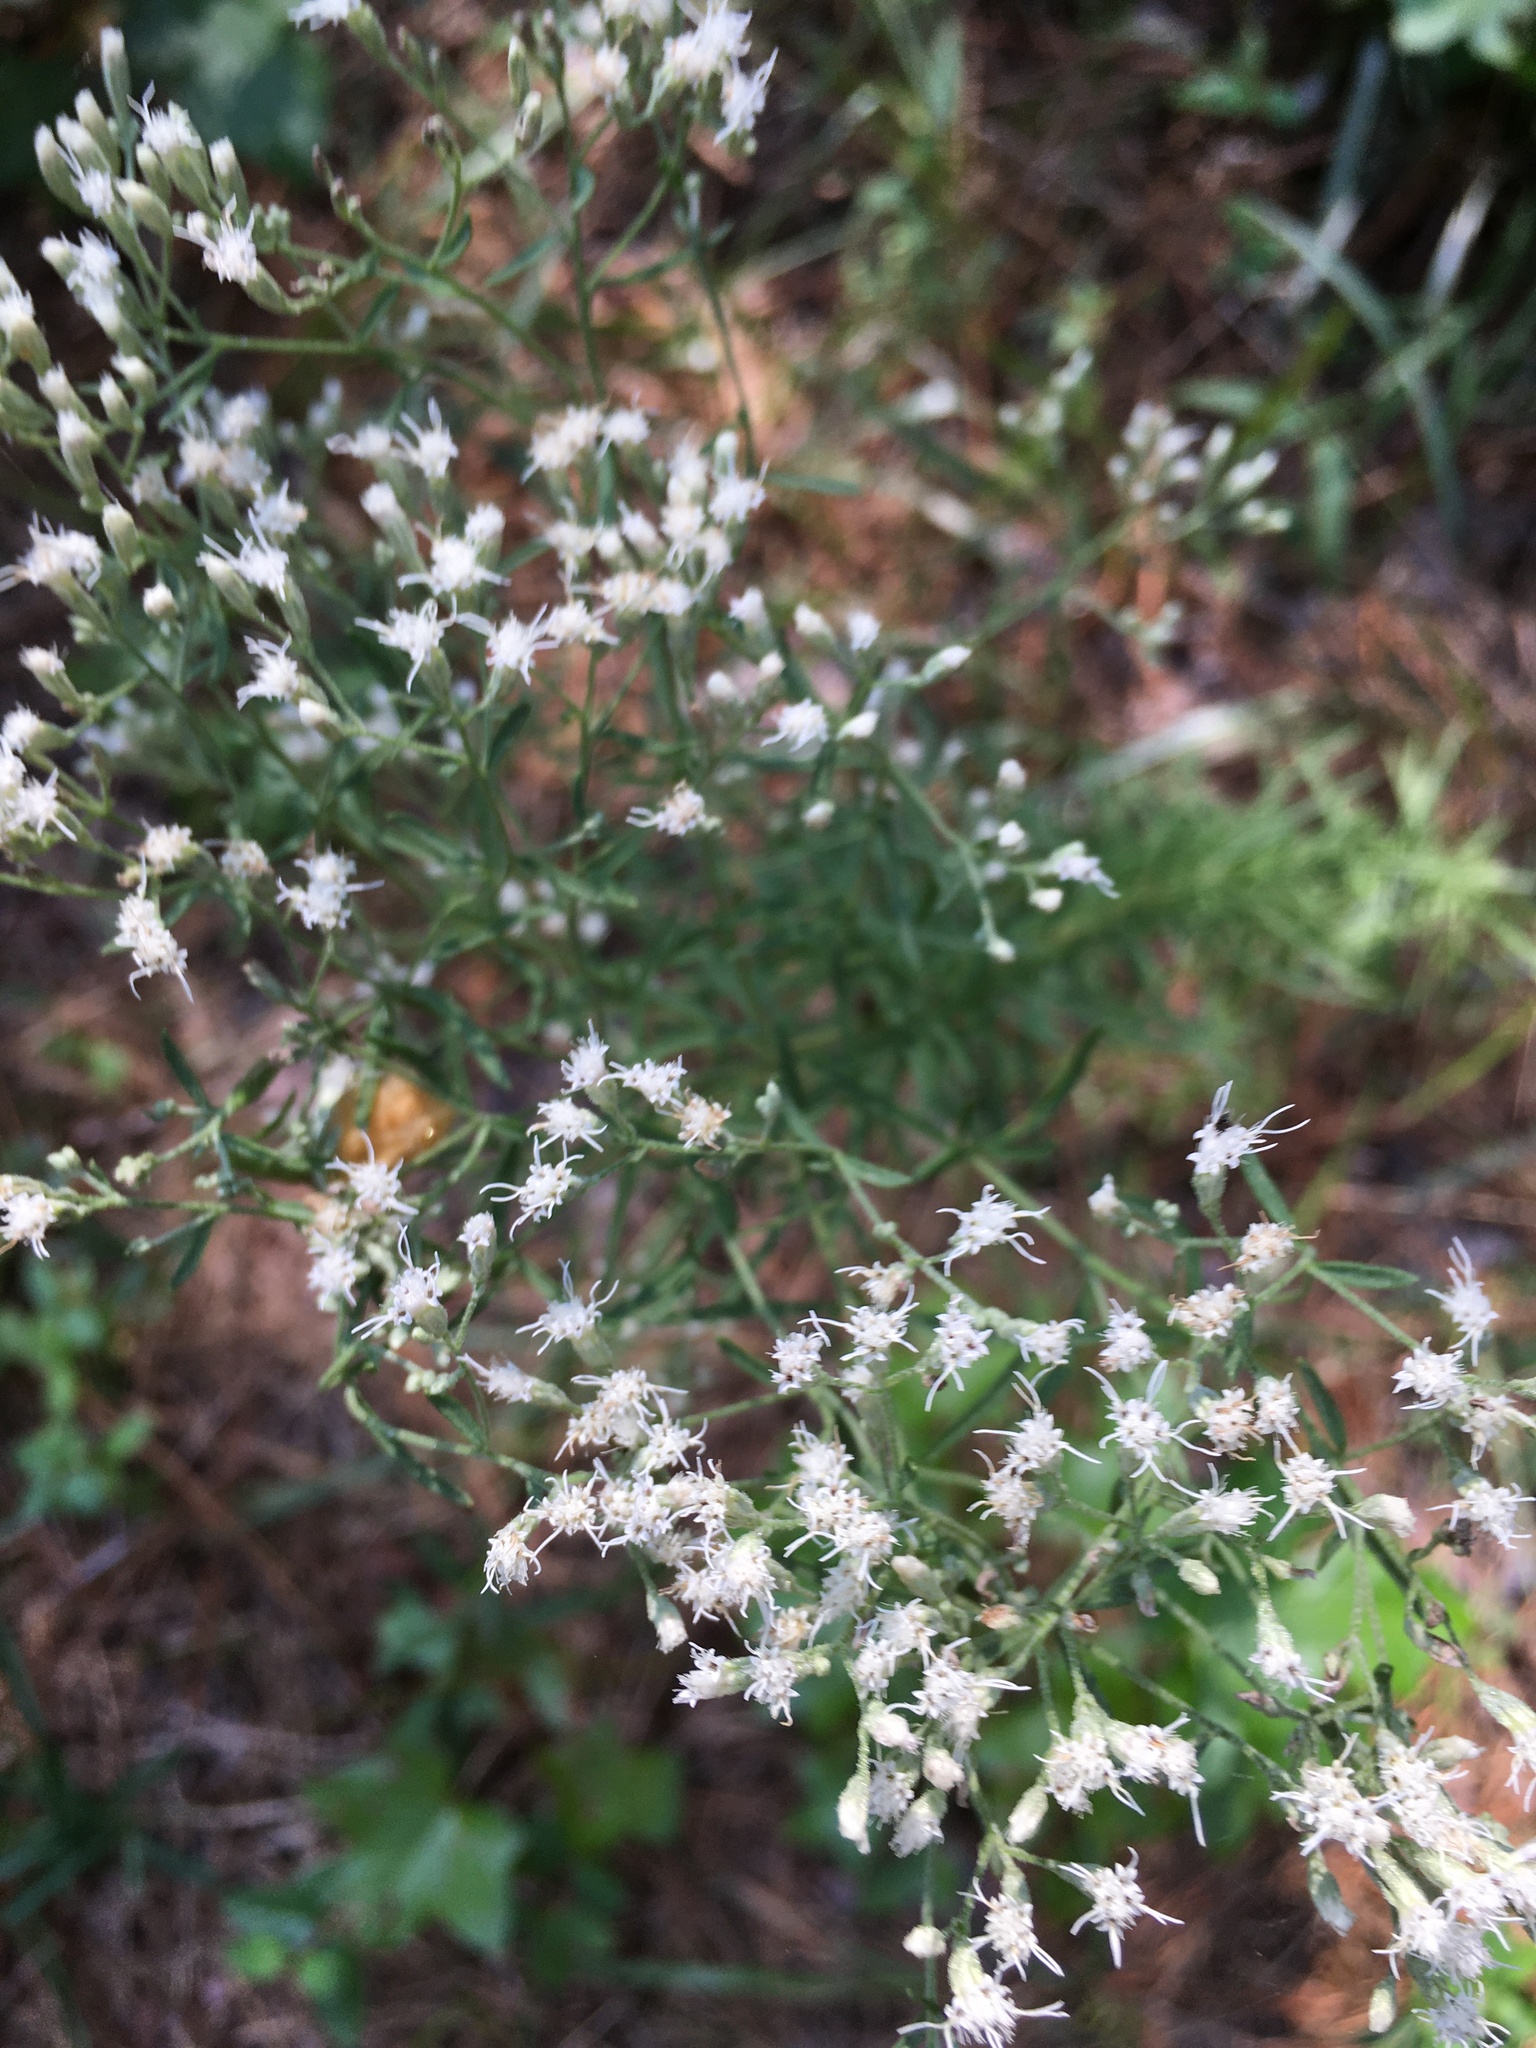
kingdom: Plantae
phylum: Tracheophyta
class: Magnoliopsida
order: Asterales
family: Asteraceae
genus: Eupatorium
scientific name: Eupatorium hyssopifolium
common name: Hyssop-leaf thoroughwort
